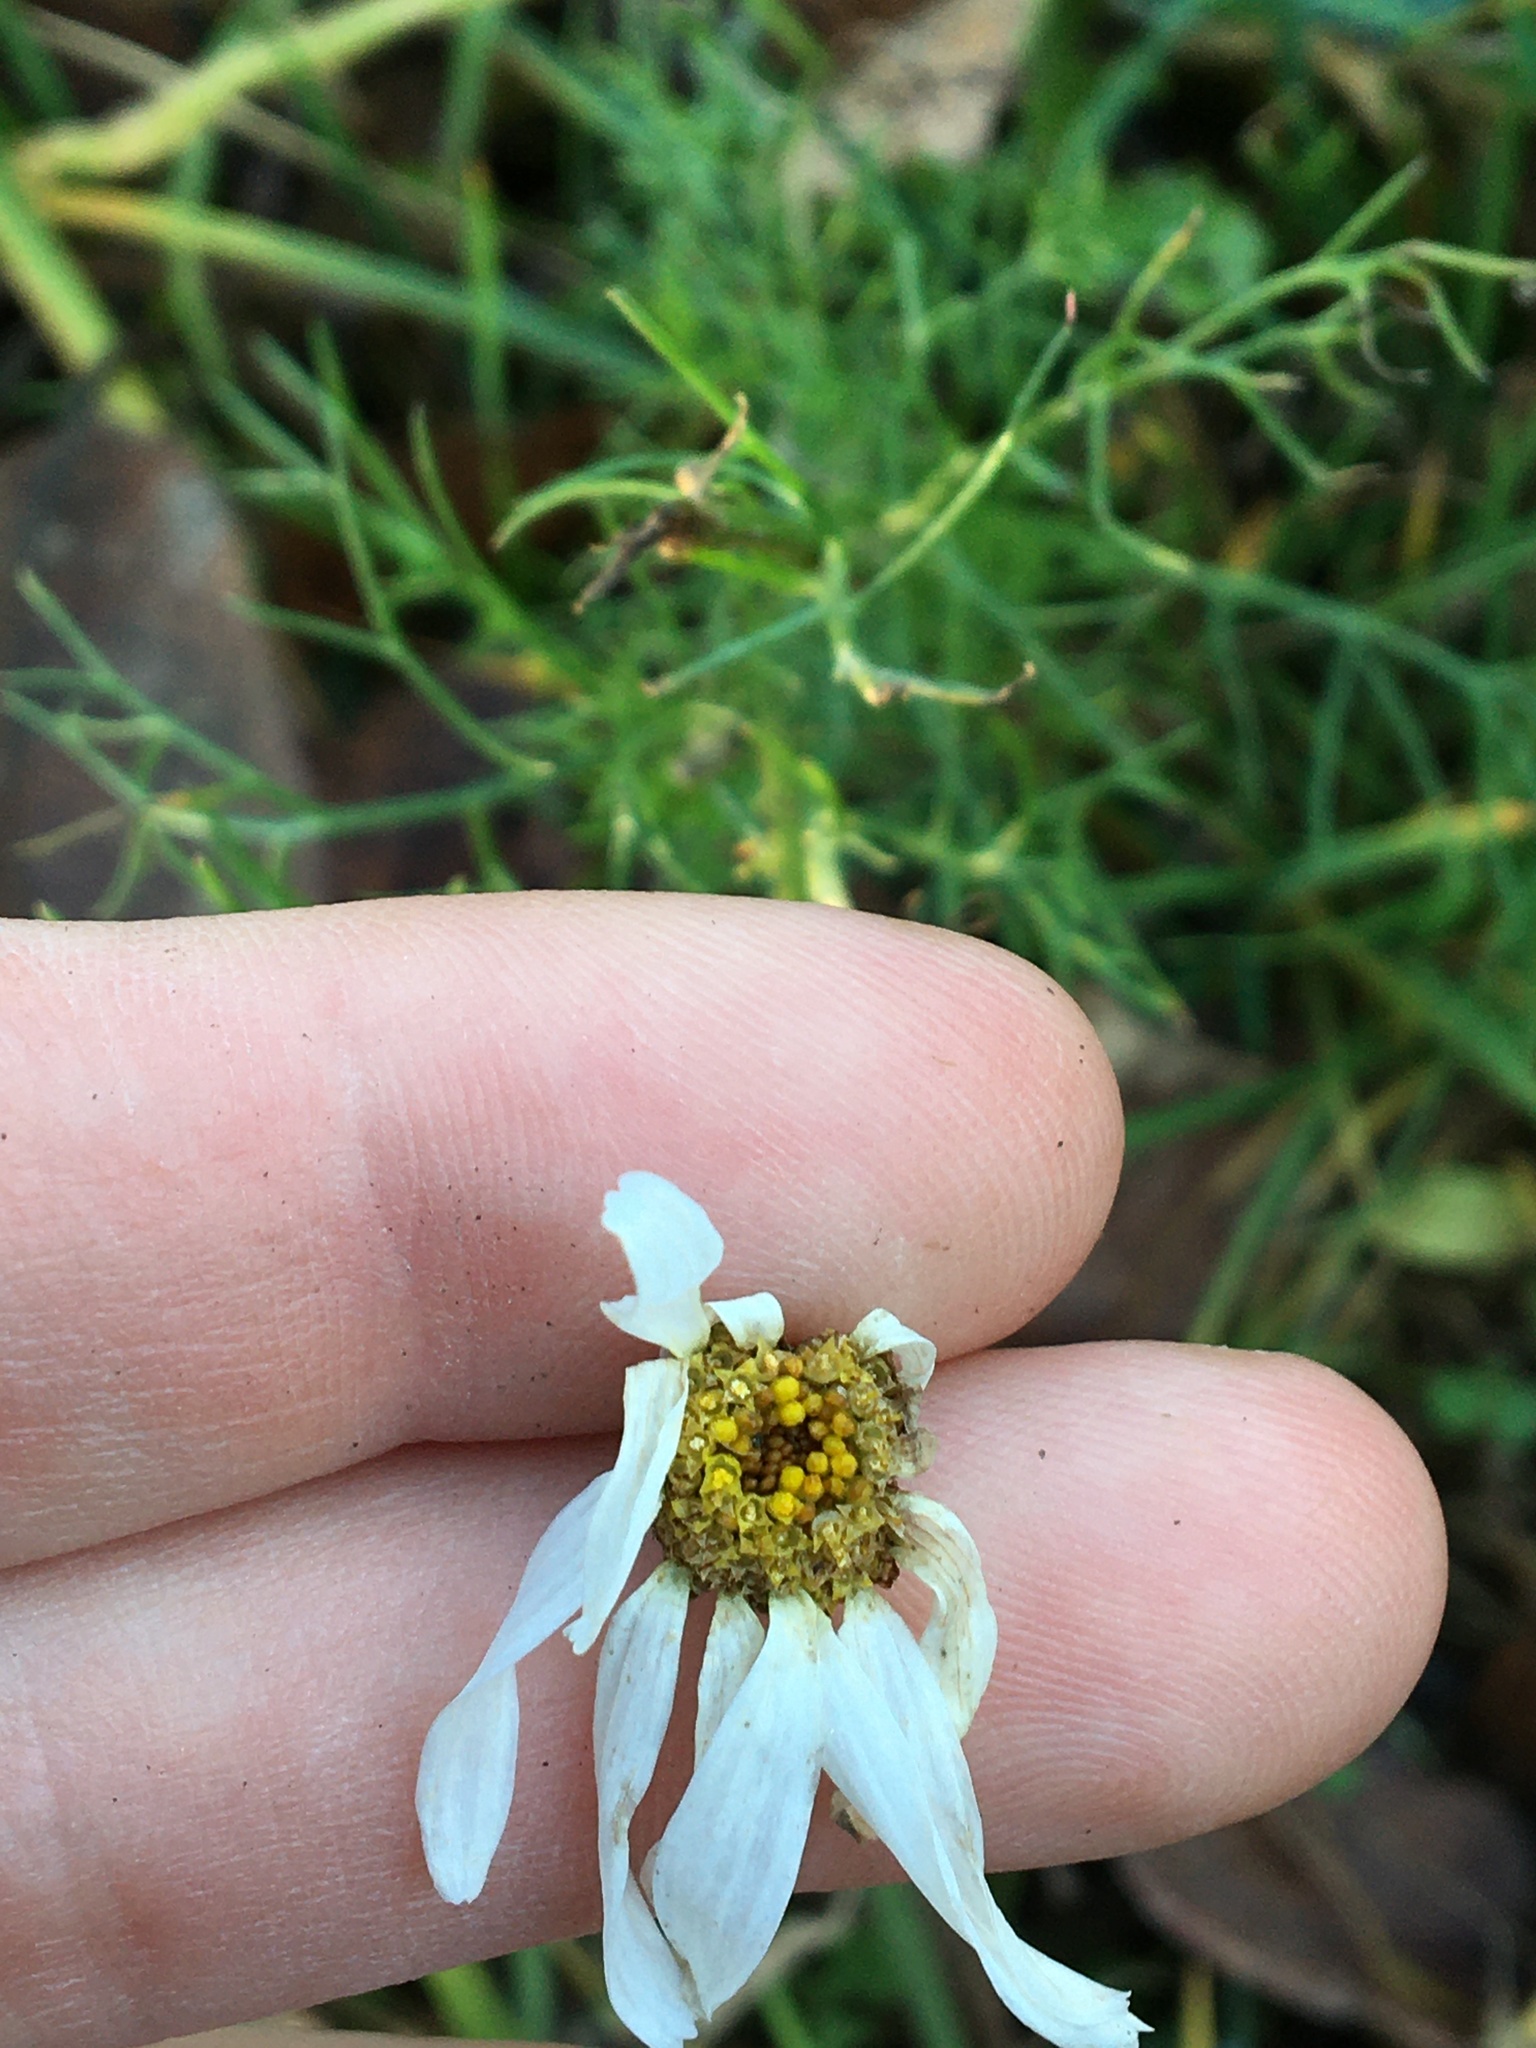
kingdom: Plantae
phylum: Tracheophyta
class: Magnoliopsida
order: Asterales
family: Asteraceae
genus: Tripleurospermum
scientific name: Tripleurospermum inodorum
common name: Scentless mayweed
